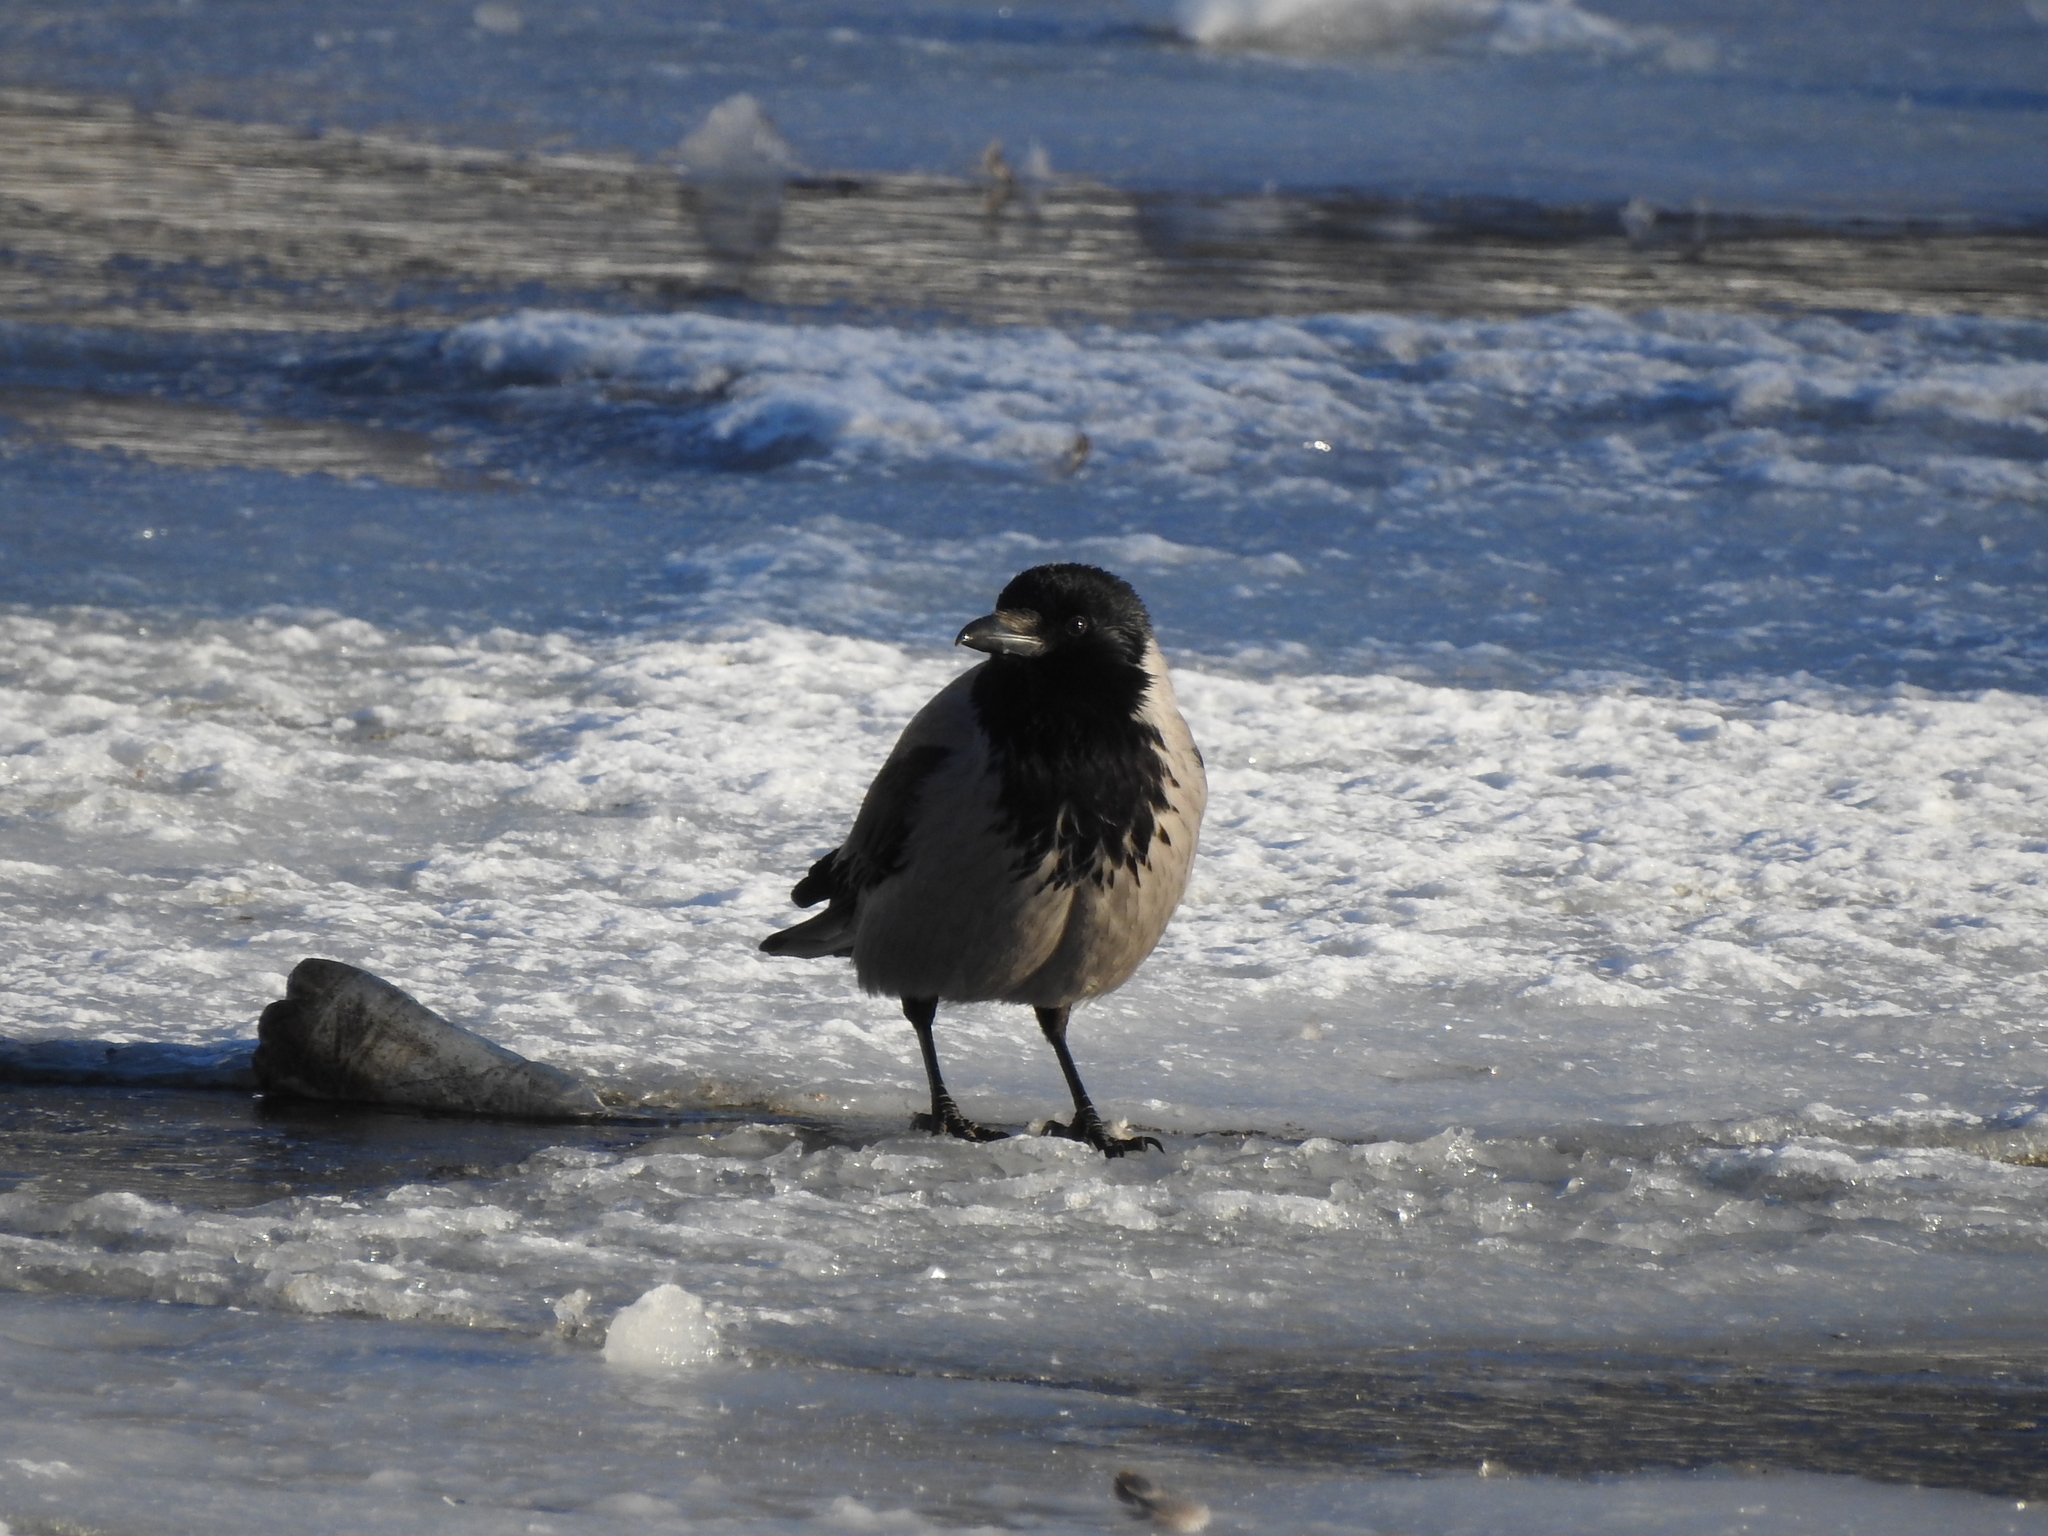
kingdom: Animalia
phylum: Chordata
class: Aves
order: Passeriformes
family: Corvidae
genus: Corvus
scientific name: Corvus cornix
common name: Hooded crow
